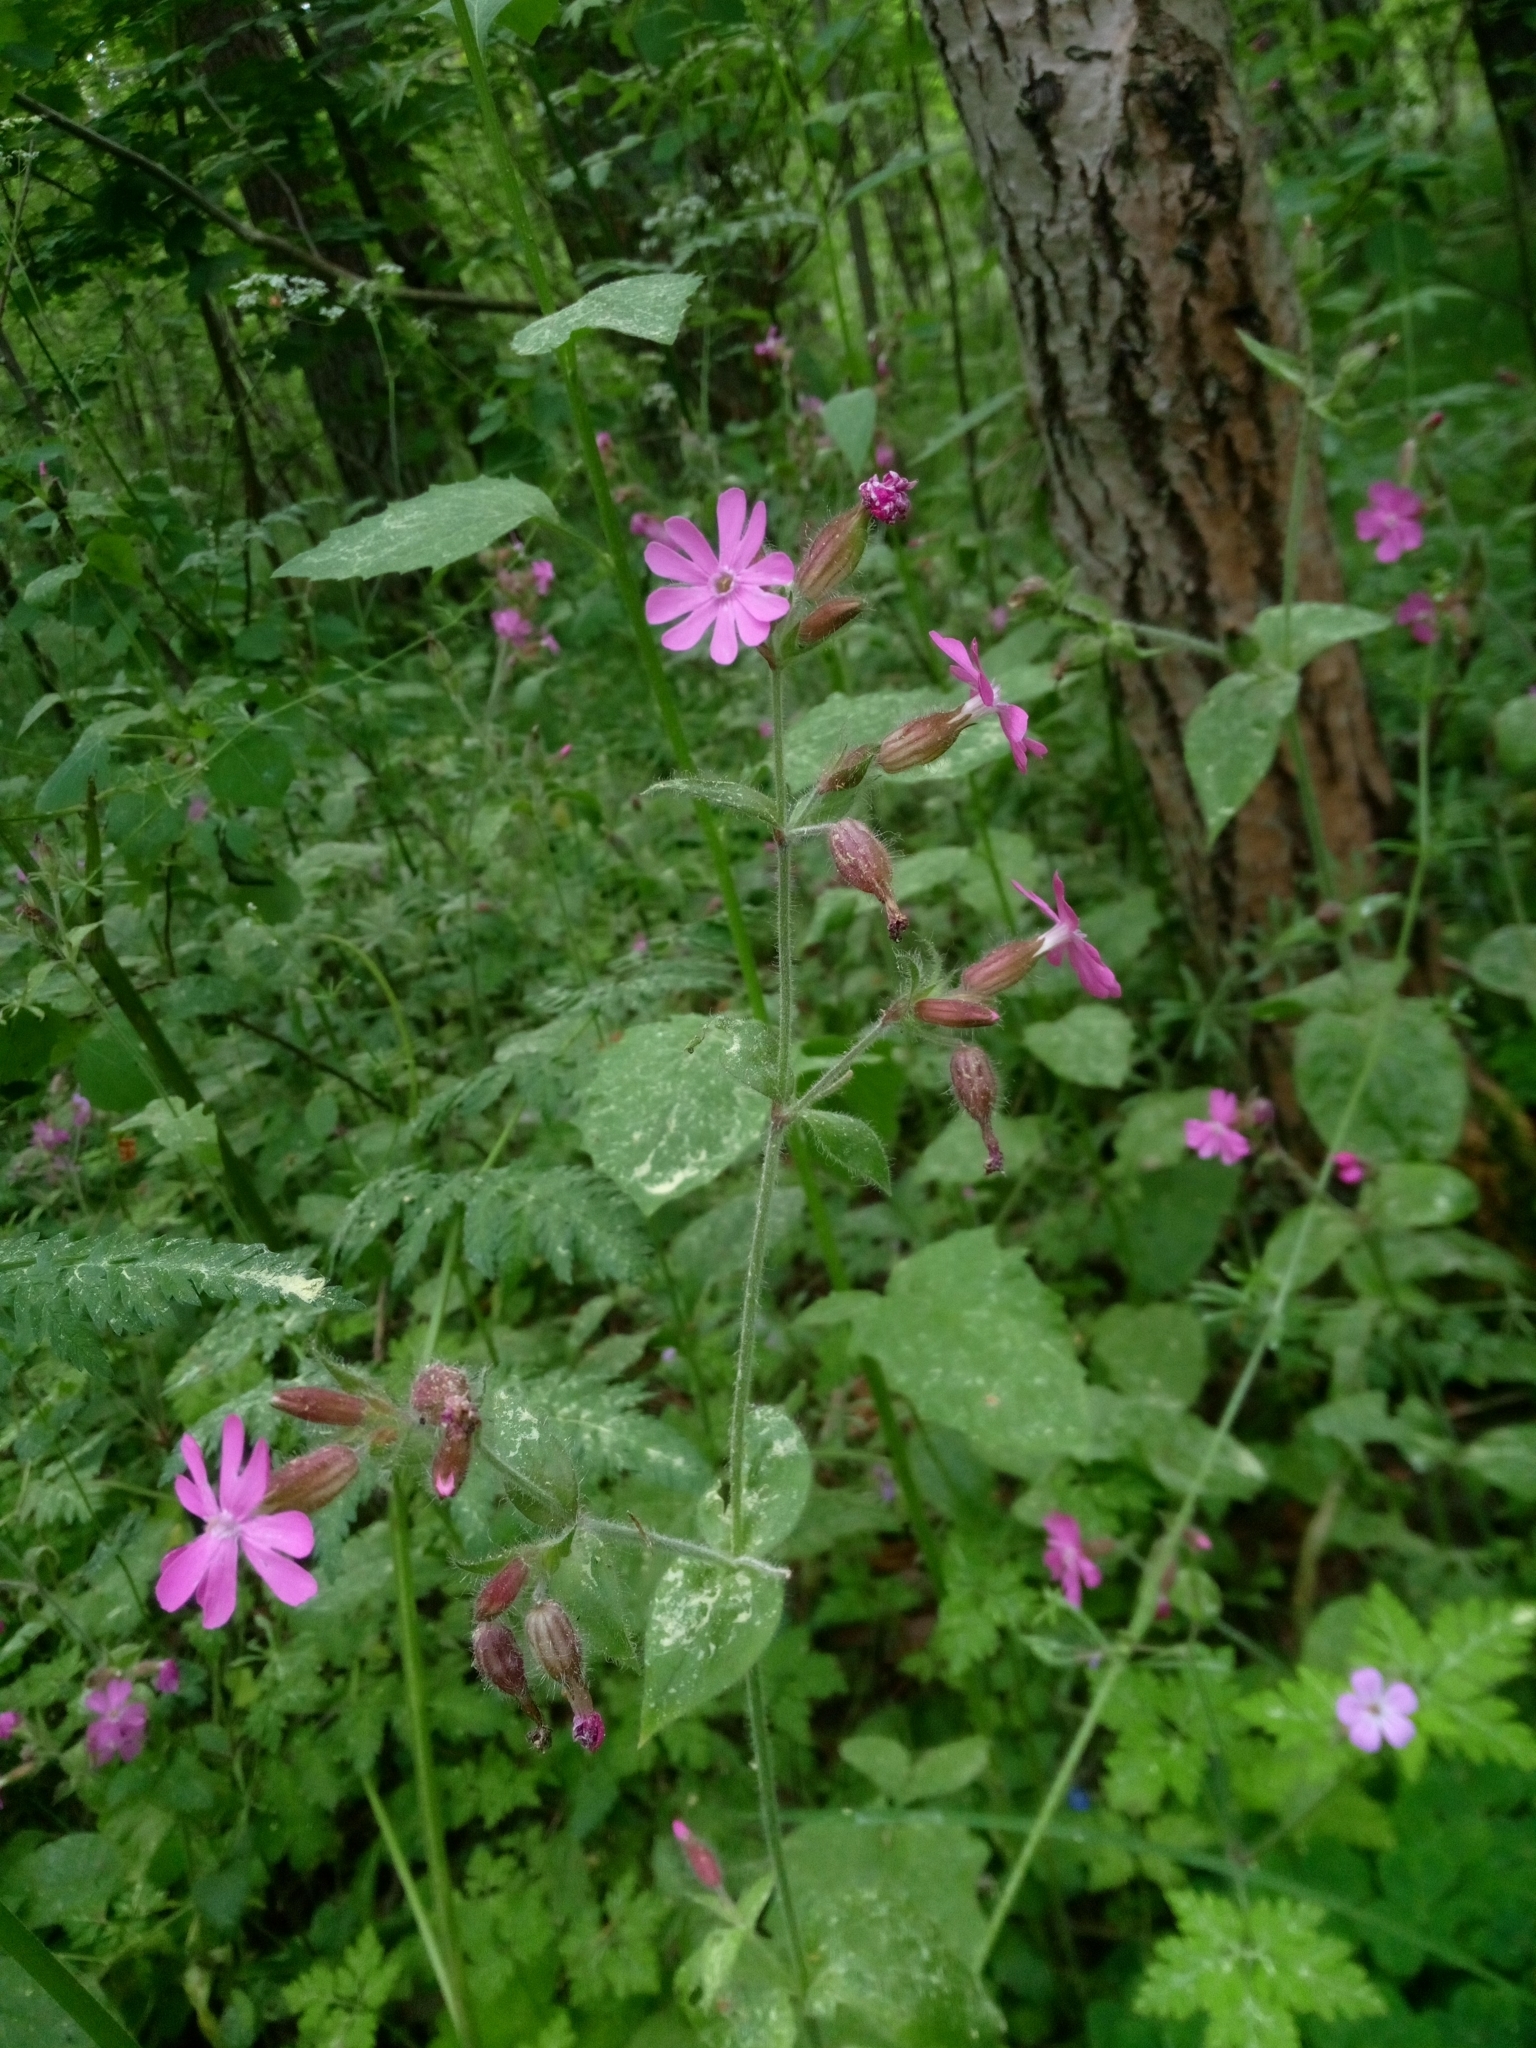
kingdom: Plantae
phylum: Tracheophyta
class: Magnoliopsida
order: Caryophyllales
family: Caryophyllaceae
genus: Silene
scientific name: Silene dioica
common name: Red campion
